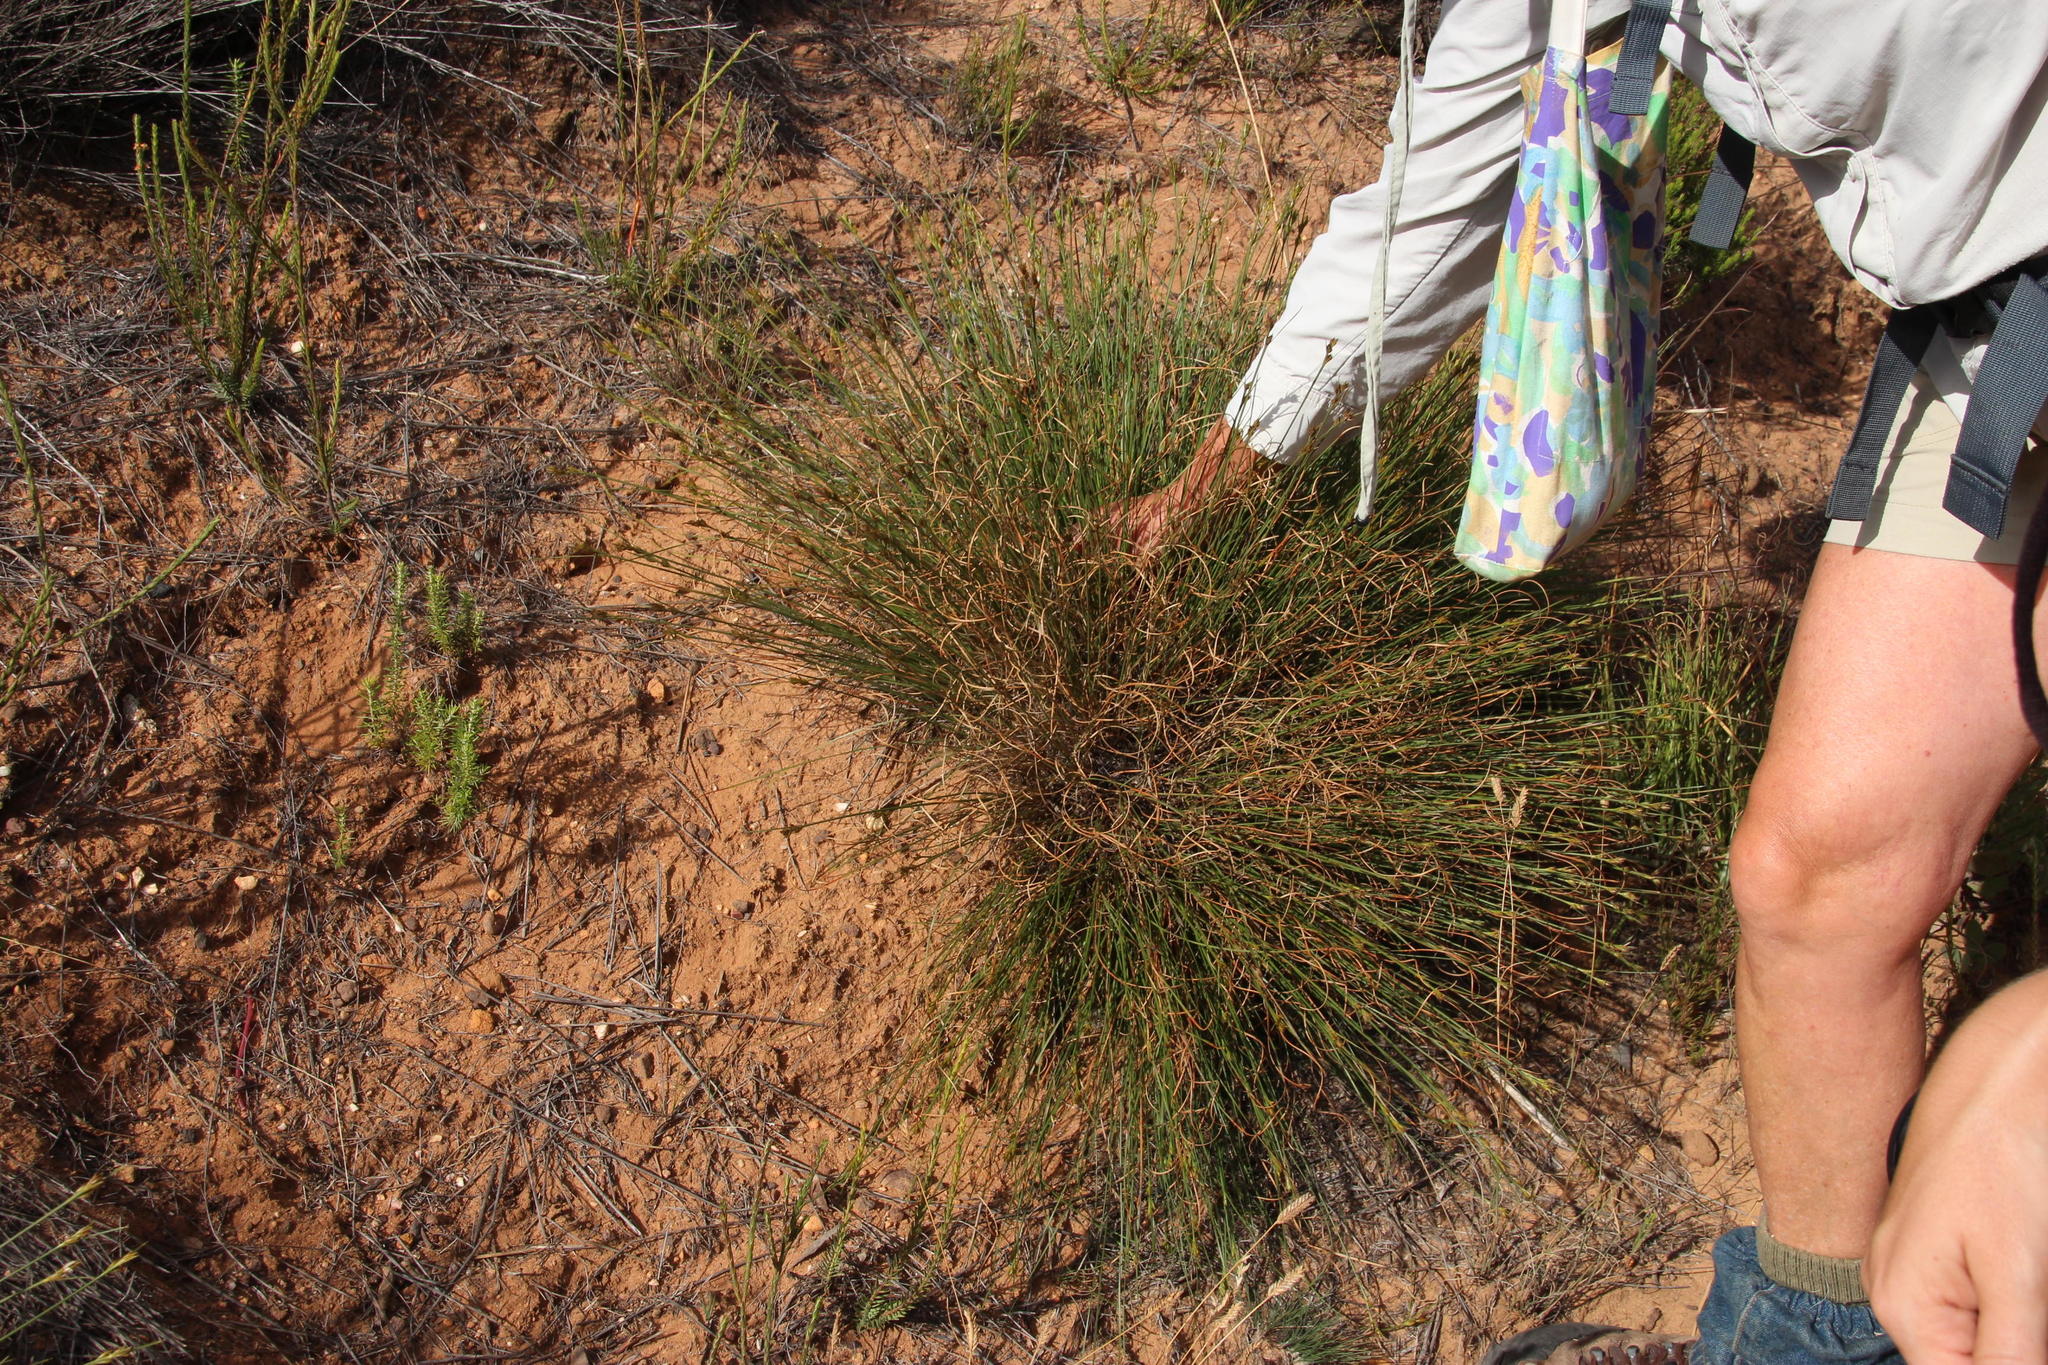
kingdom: Plantae
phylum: Tracheophyta
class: Liliopsida
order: Poales
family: Cyperaceae
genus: Schoenus
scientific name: Schoenus compar
